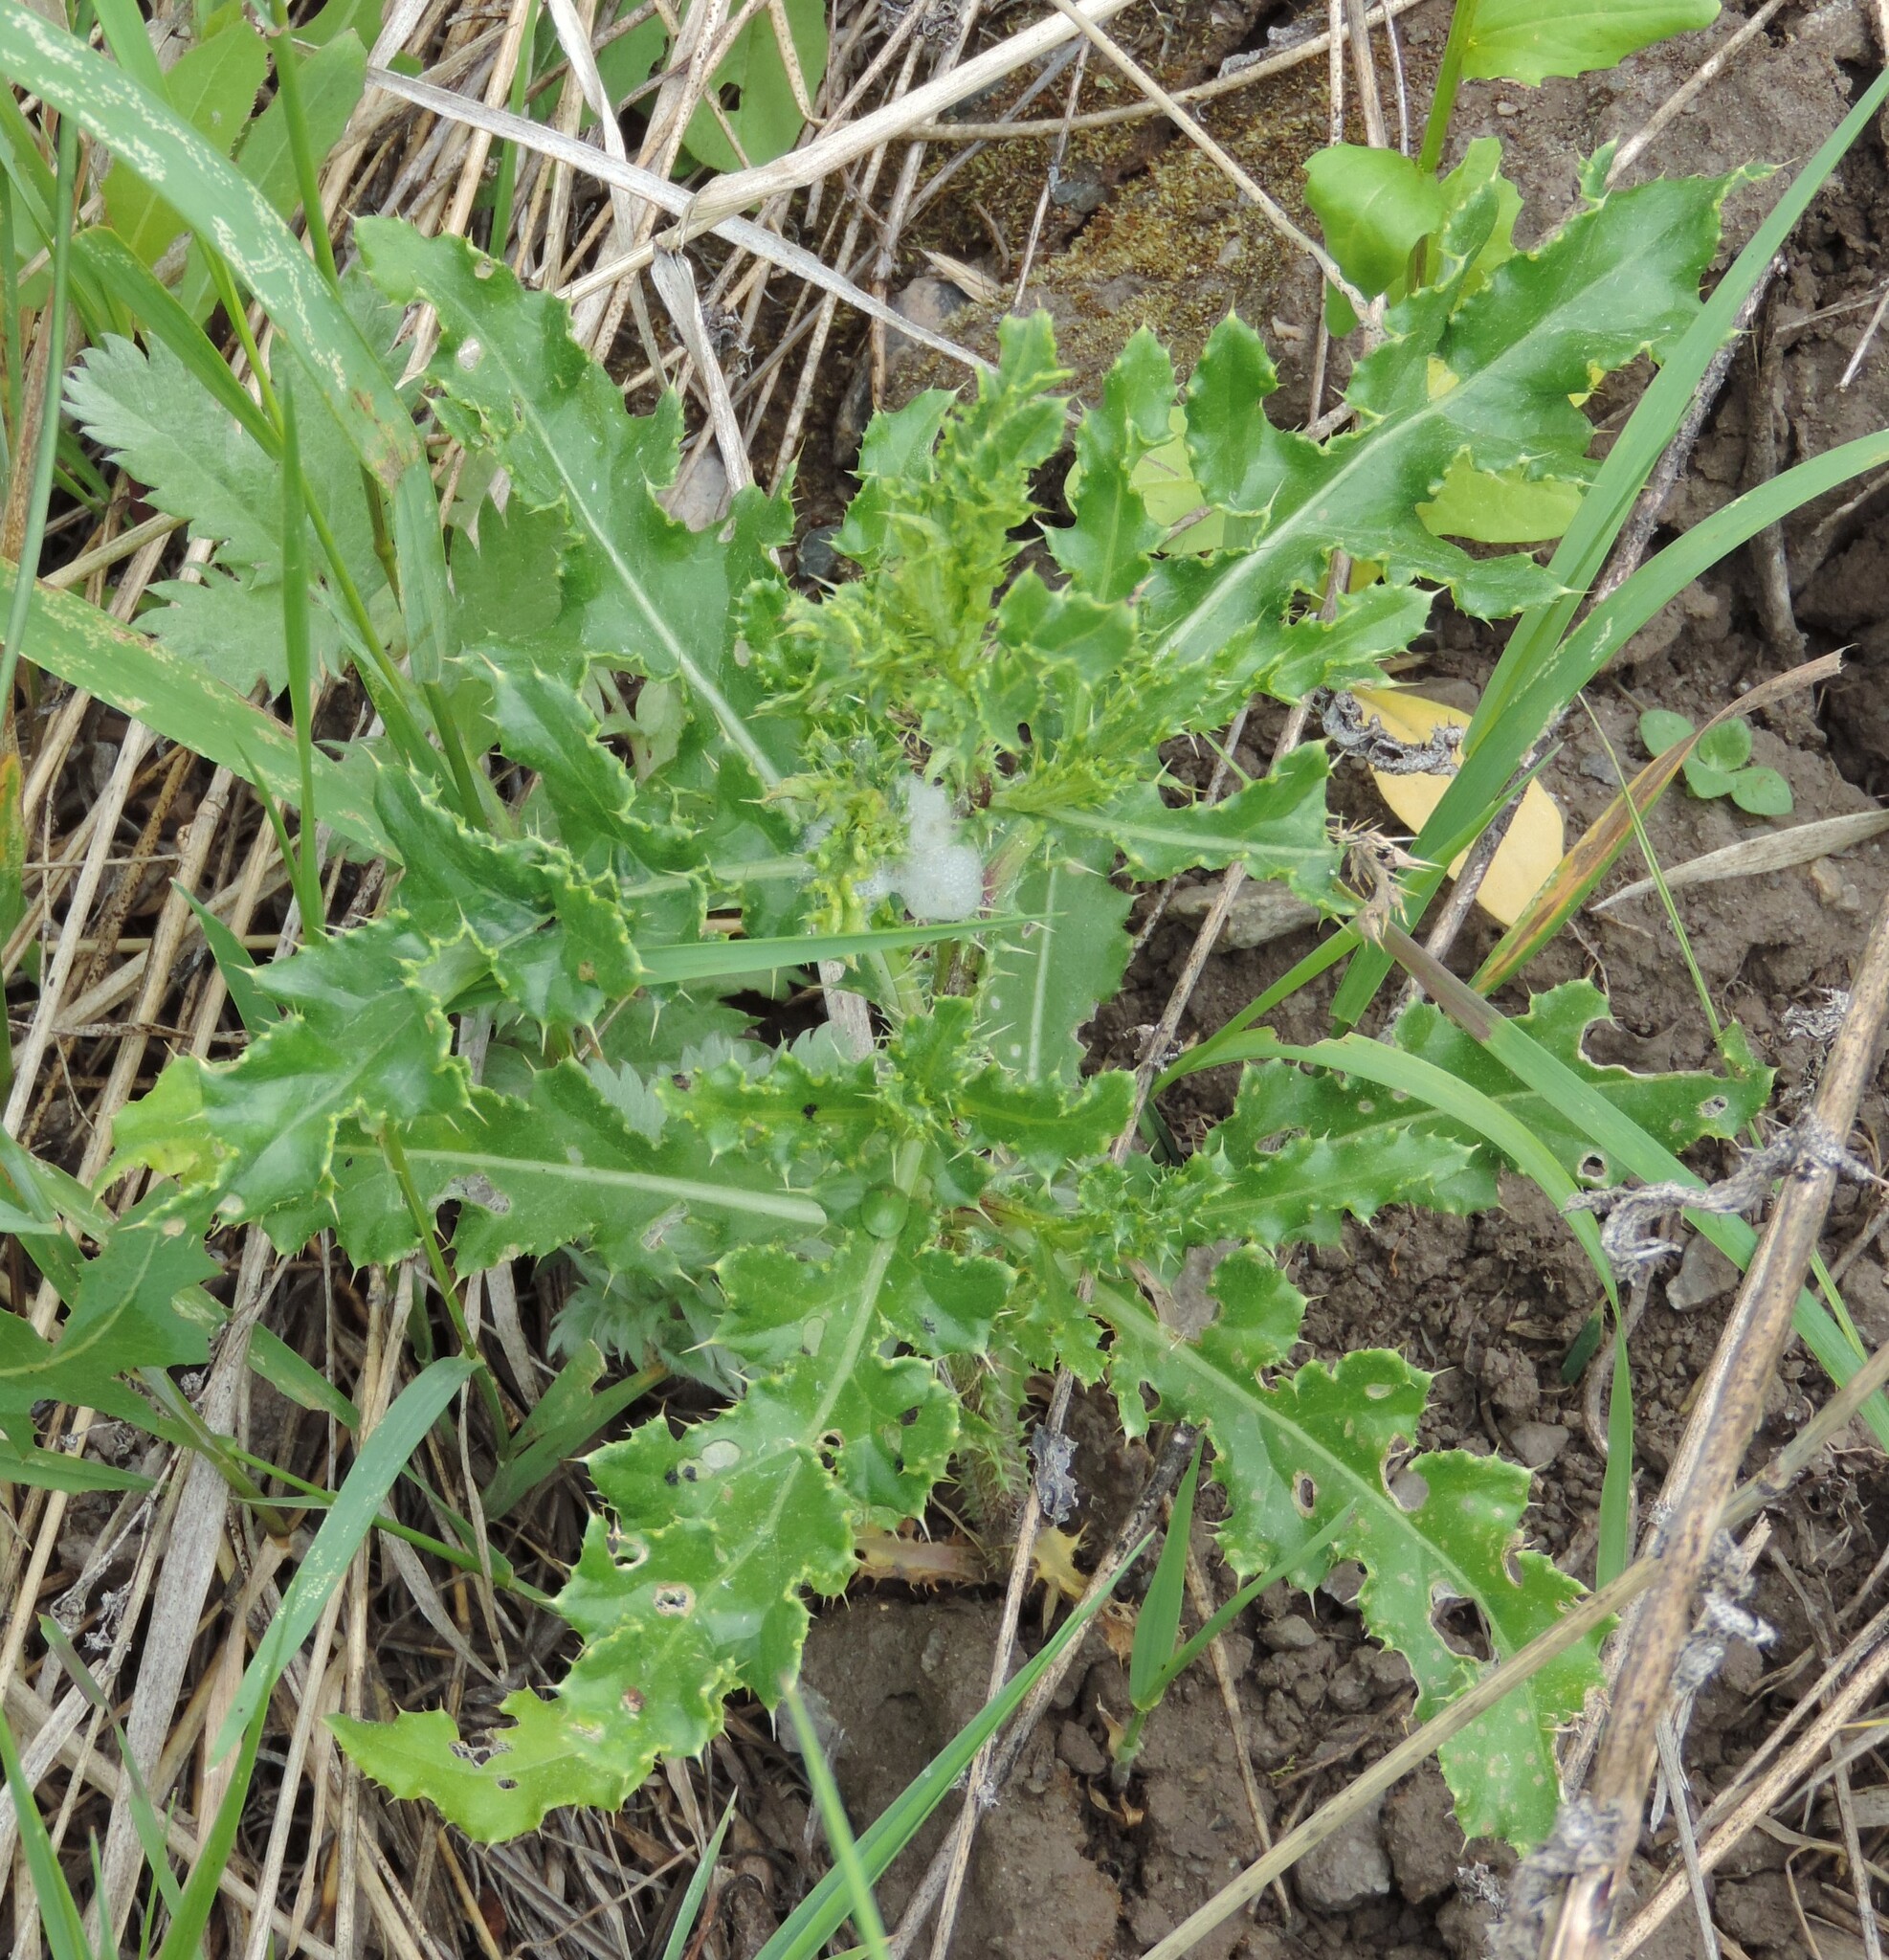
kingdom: Plantae
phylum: Tracheophyta
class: Magnoliopsida
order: Asterales
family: Asteraceae
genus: Cirsium
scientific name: Cirsium arvense
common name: Creeping thistle
